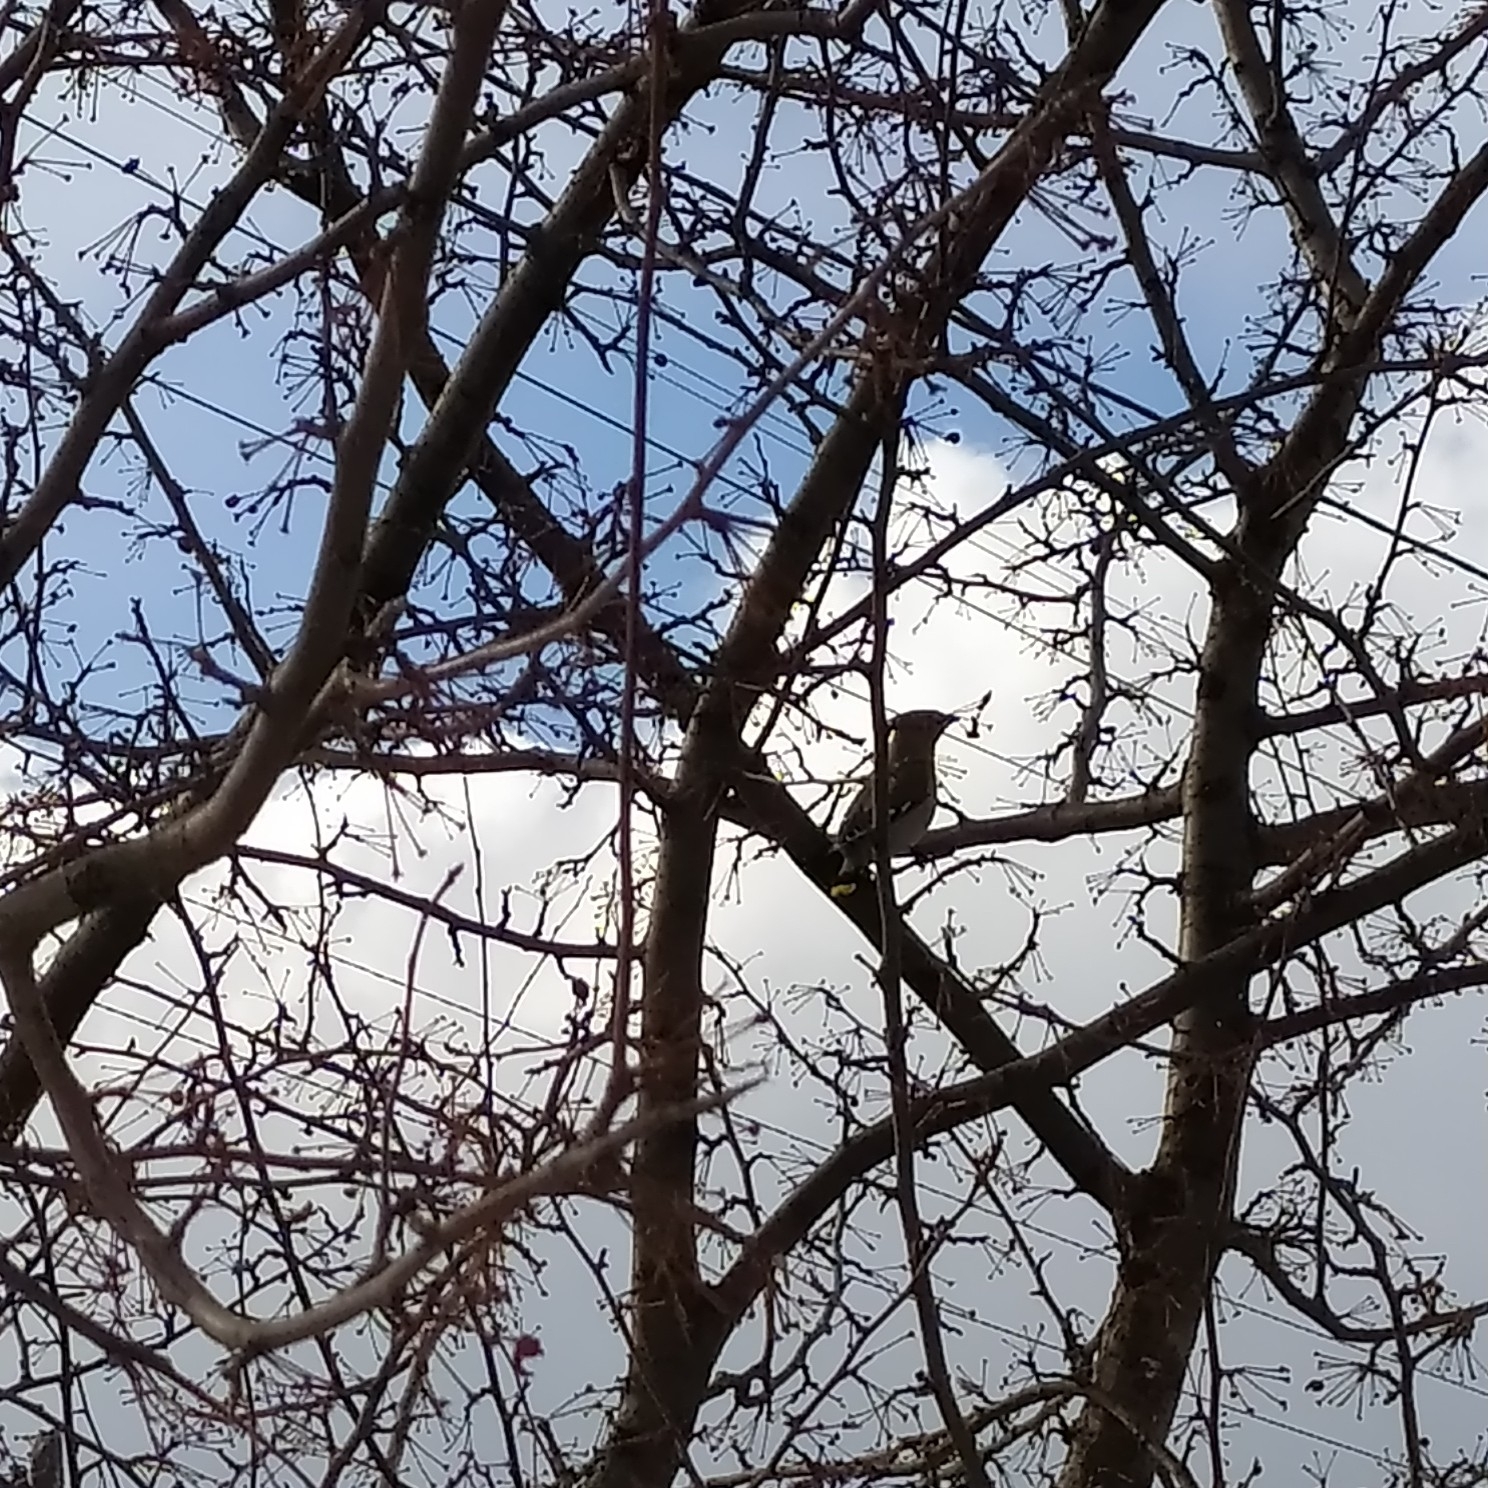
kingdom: Animalia
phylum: Chordata
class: Aves
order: Passeriformes
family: Bombycillidae
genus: Bombycilla
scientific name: Bombycilla garrulus
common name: Bohemian waxwing
